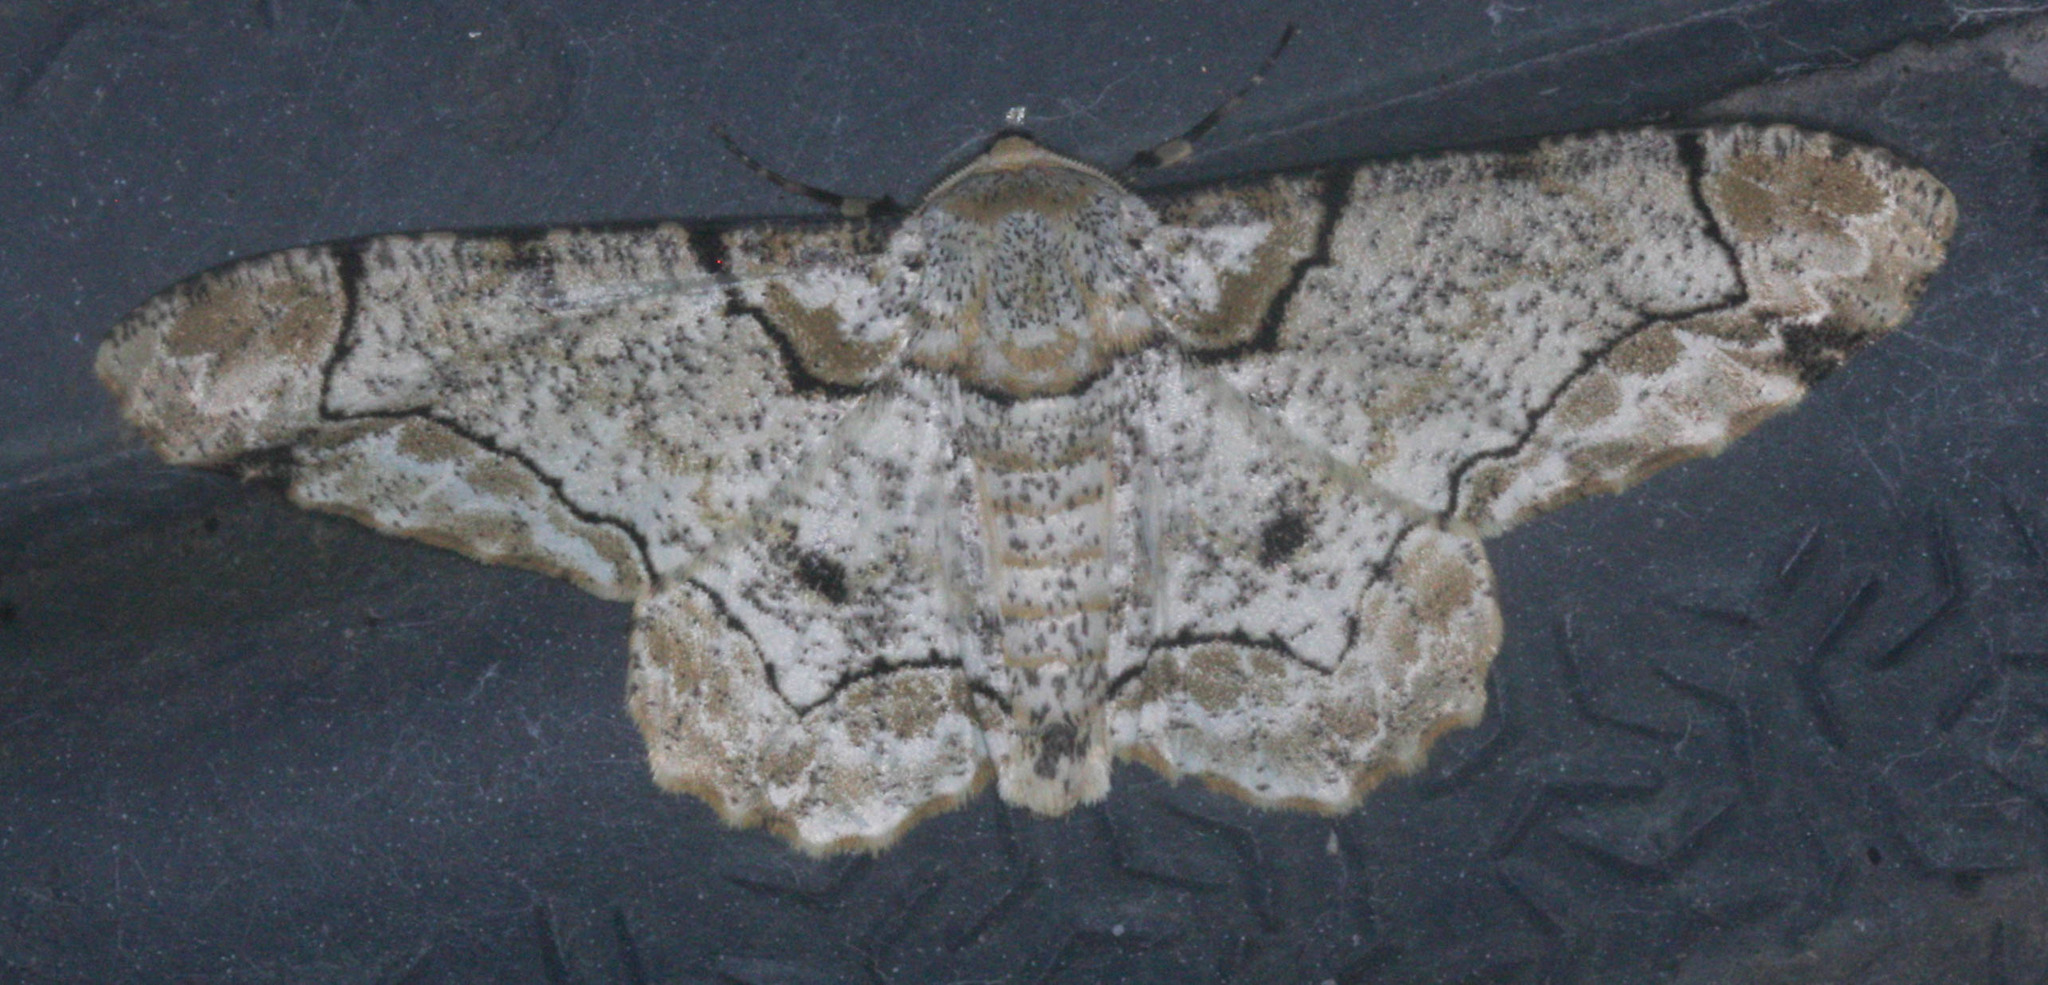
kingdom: Animalia
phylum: Arthropoda
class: Insecta
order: Lepidoptera
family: Geometridae
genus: Biston
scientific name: Biston bengaliaria
